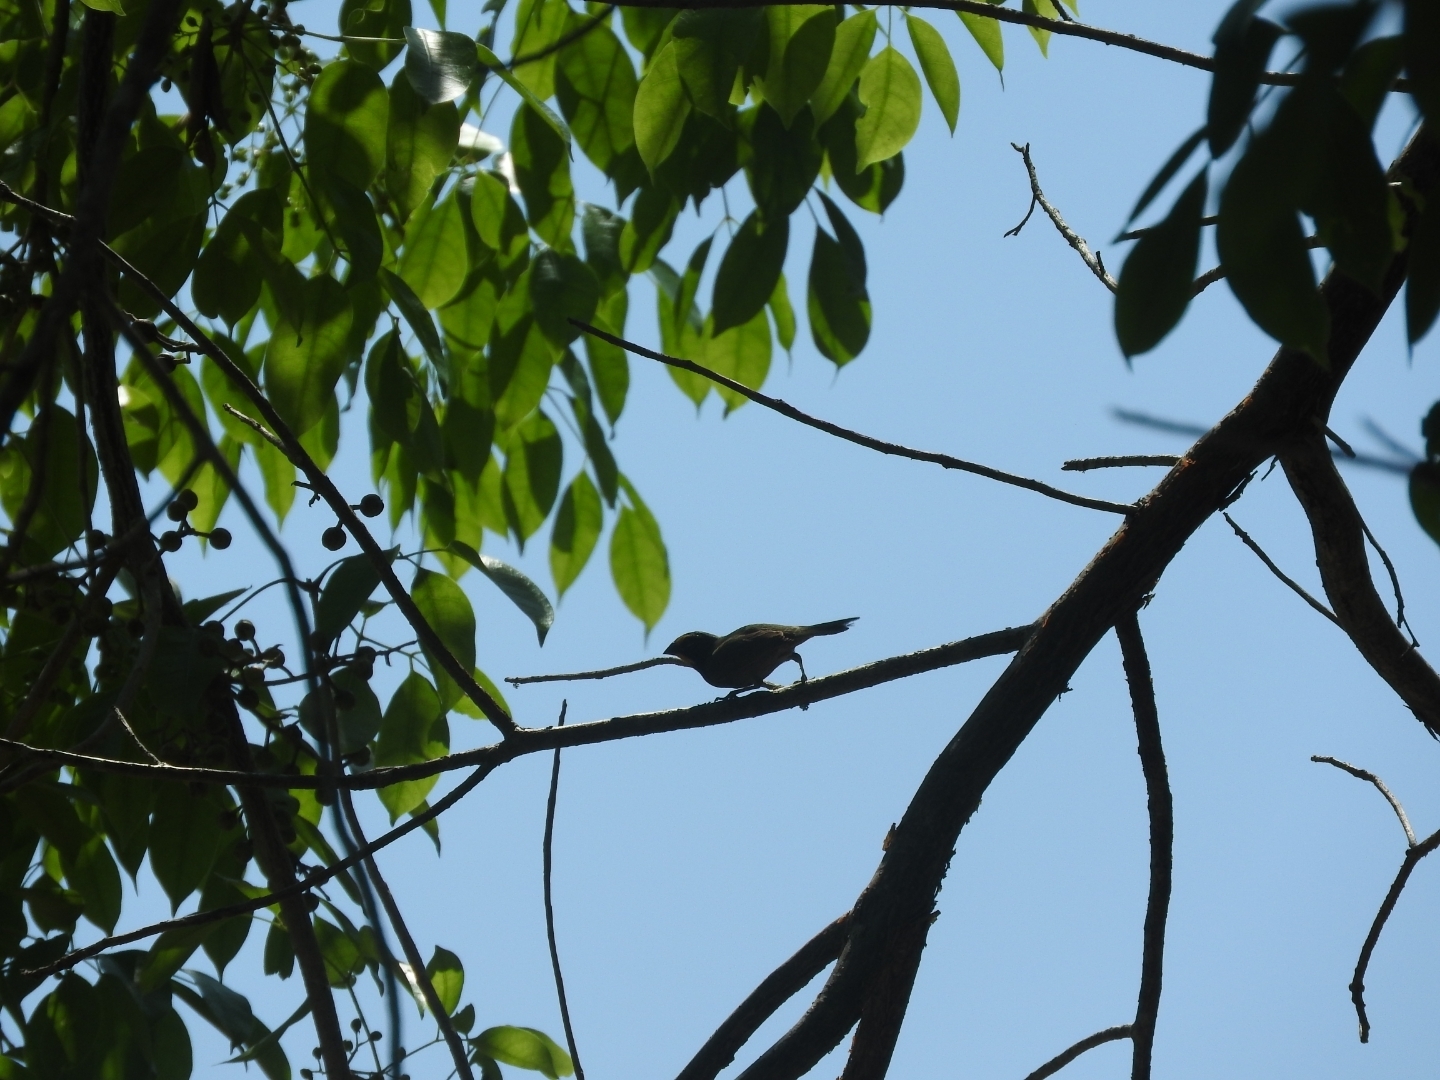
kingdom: Animalia
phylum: Chordata
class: Aves
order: Passeriformes
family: Thraupidae
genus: Tiaris
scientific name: Tiaris olivaceus
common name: Yellow-faced grassquit
